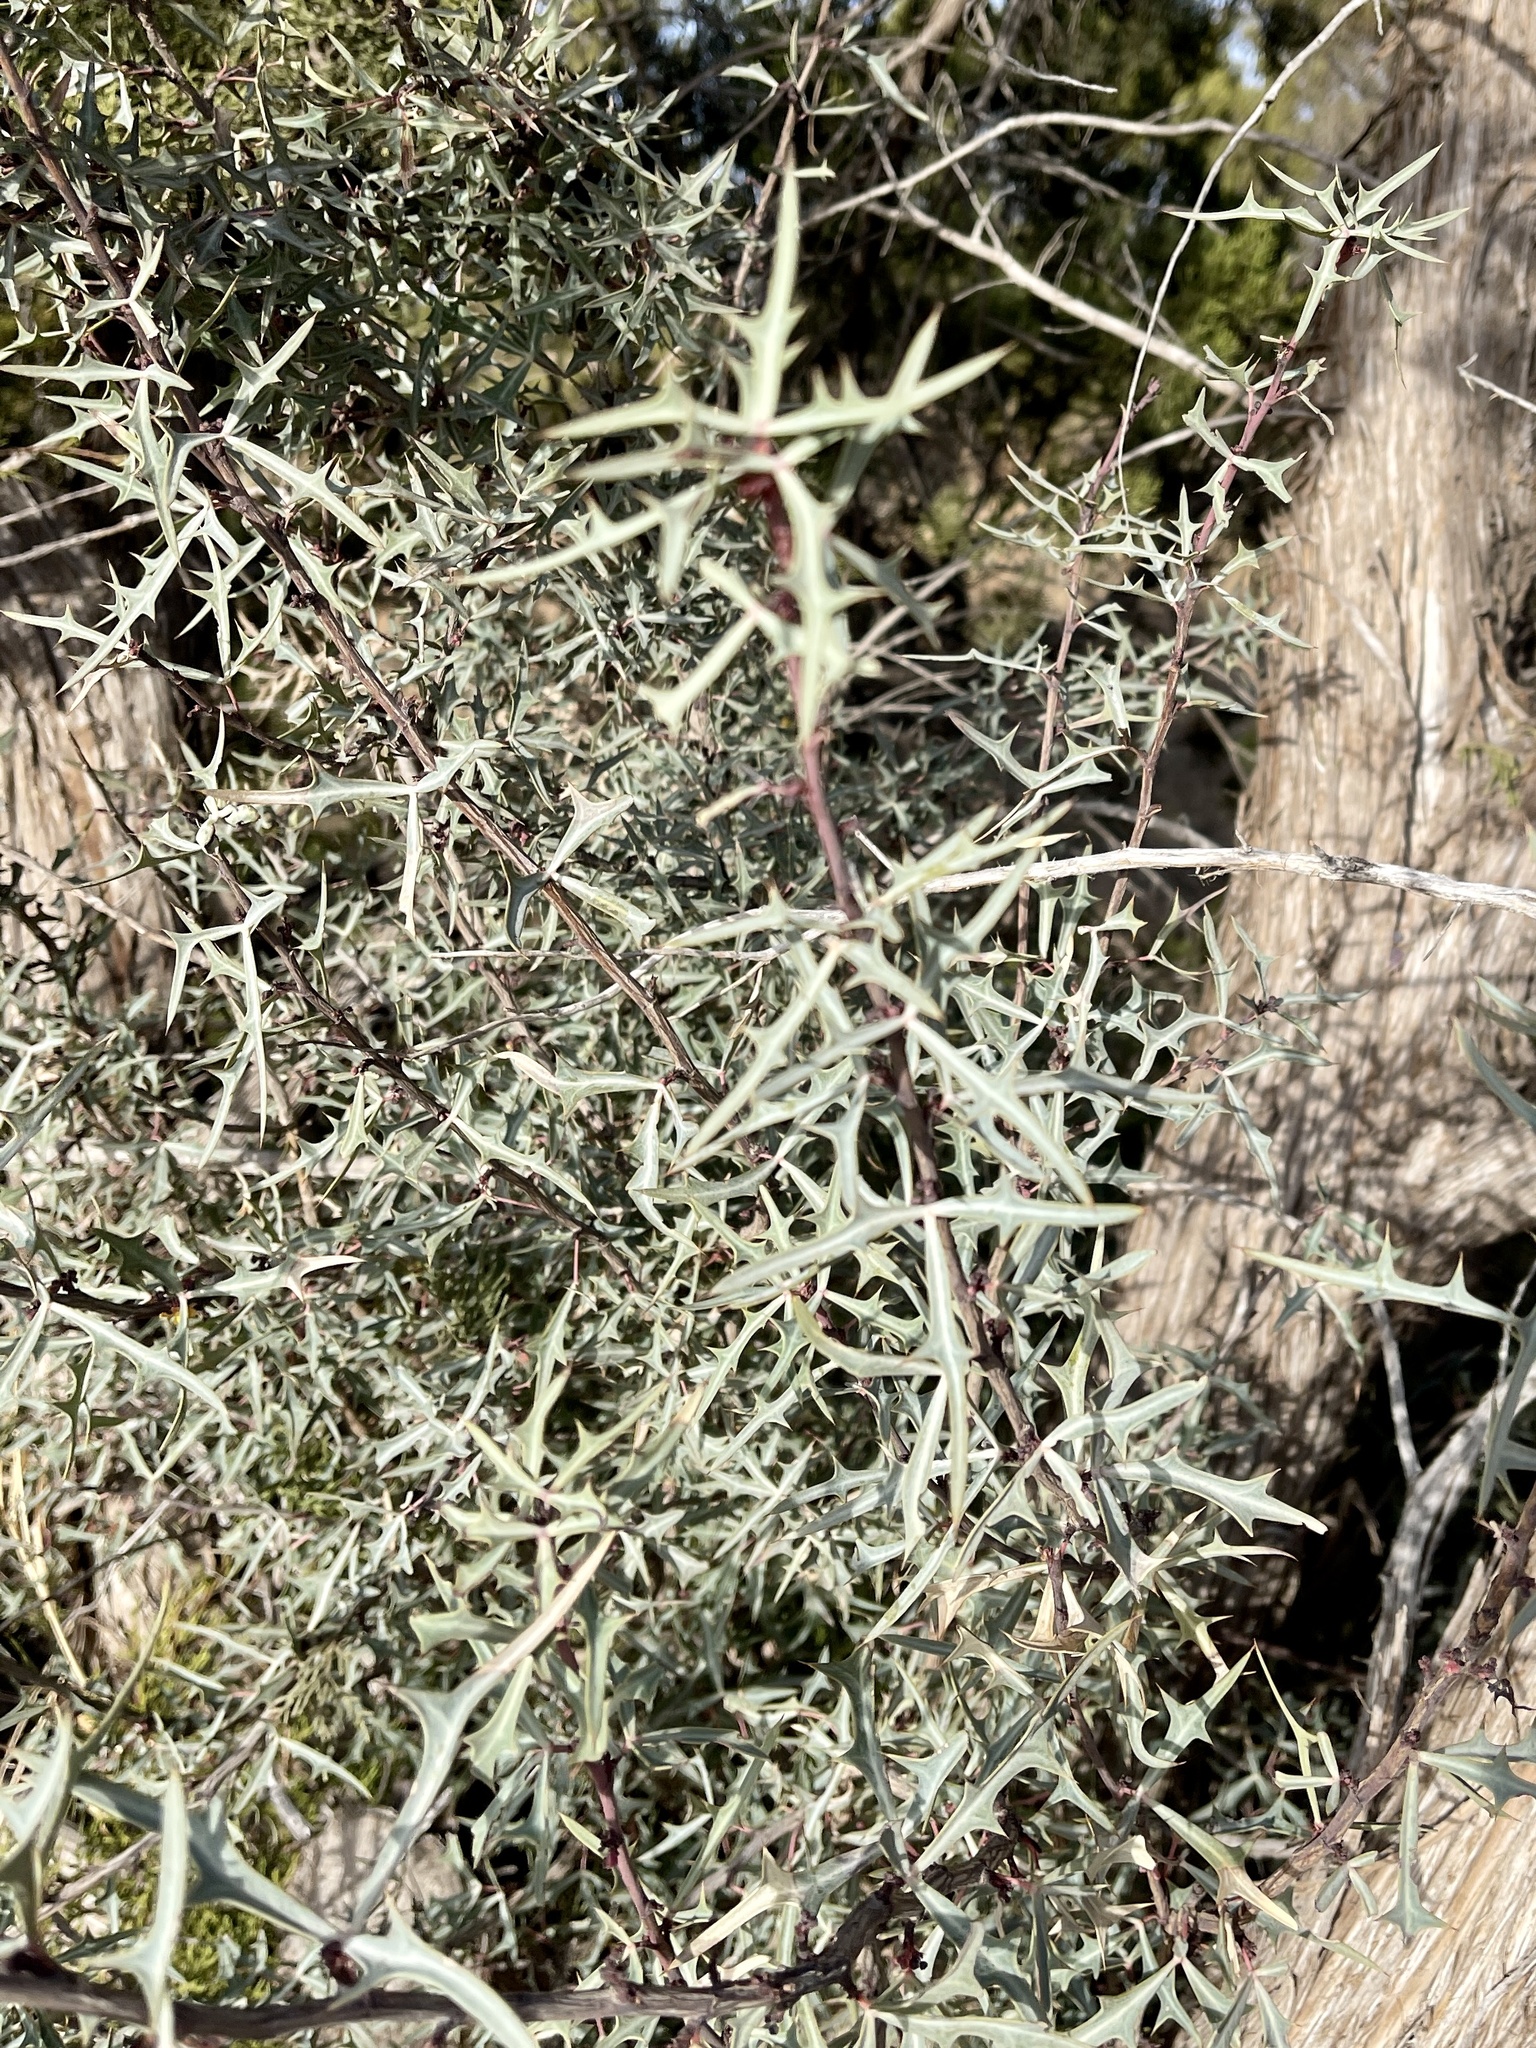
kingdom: Plantae
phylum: Tracheophyta
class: Magnoliopsida
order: Ranunculales
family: Berberidaceae
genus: Alloberberis
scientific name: Alloberberis trifoliolata
